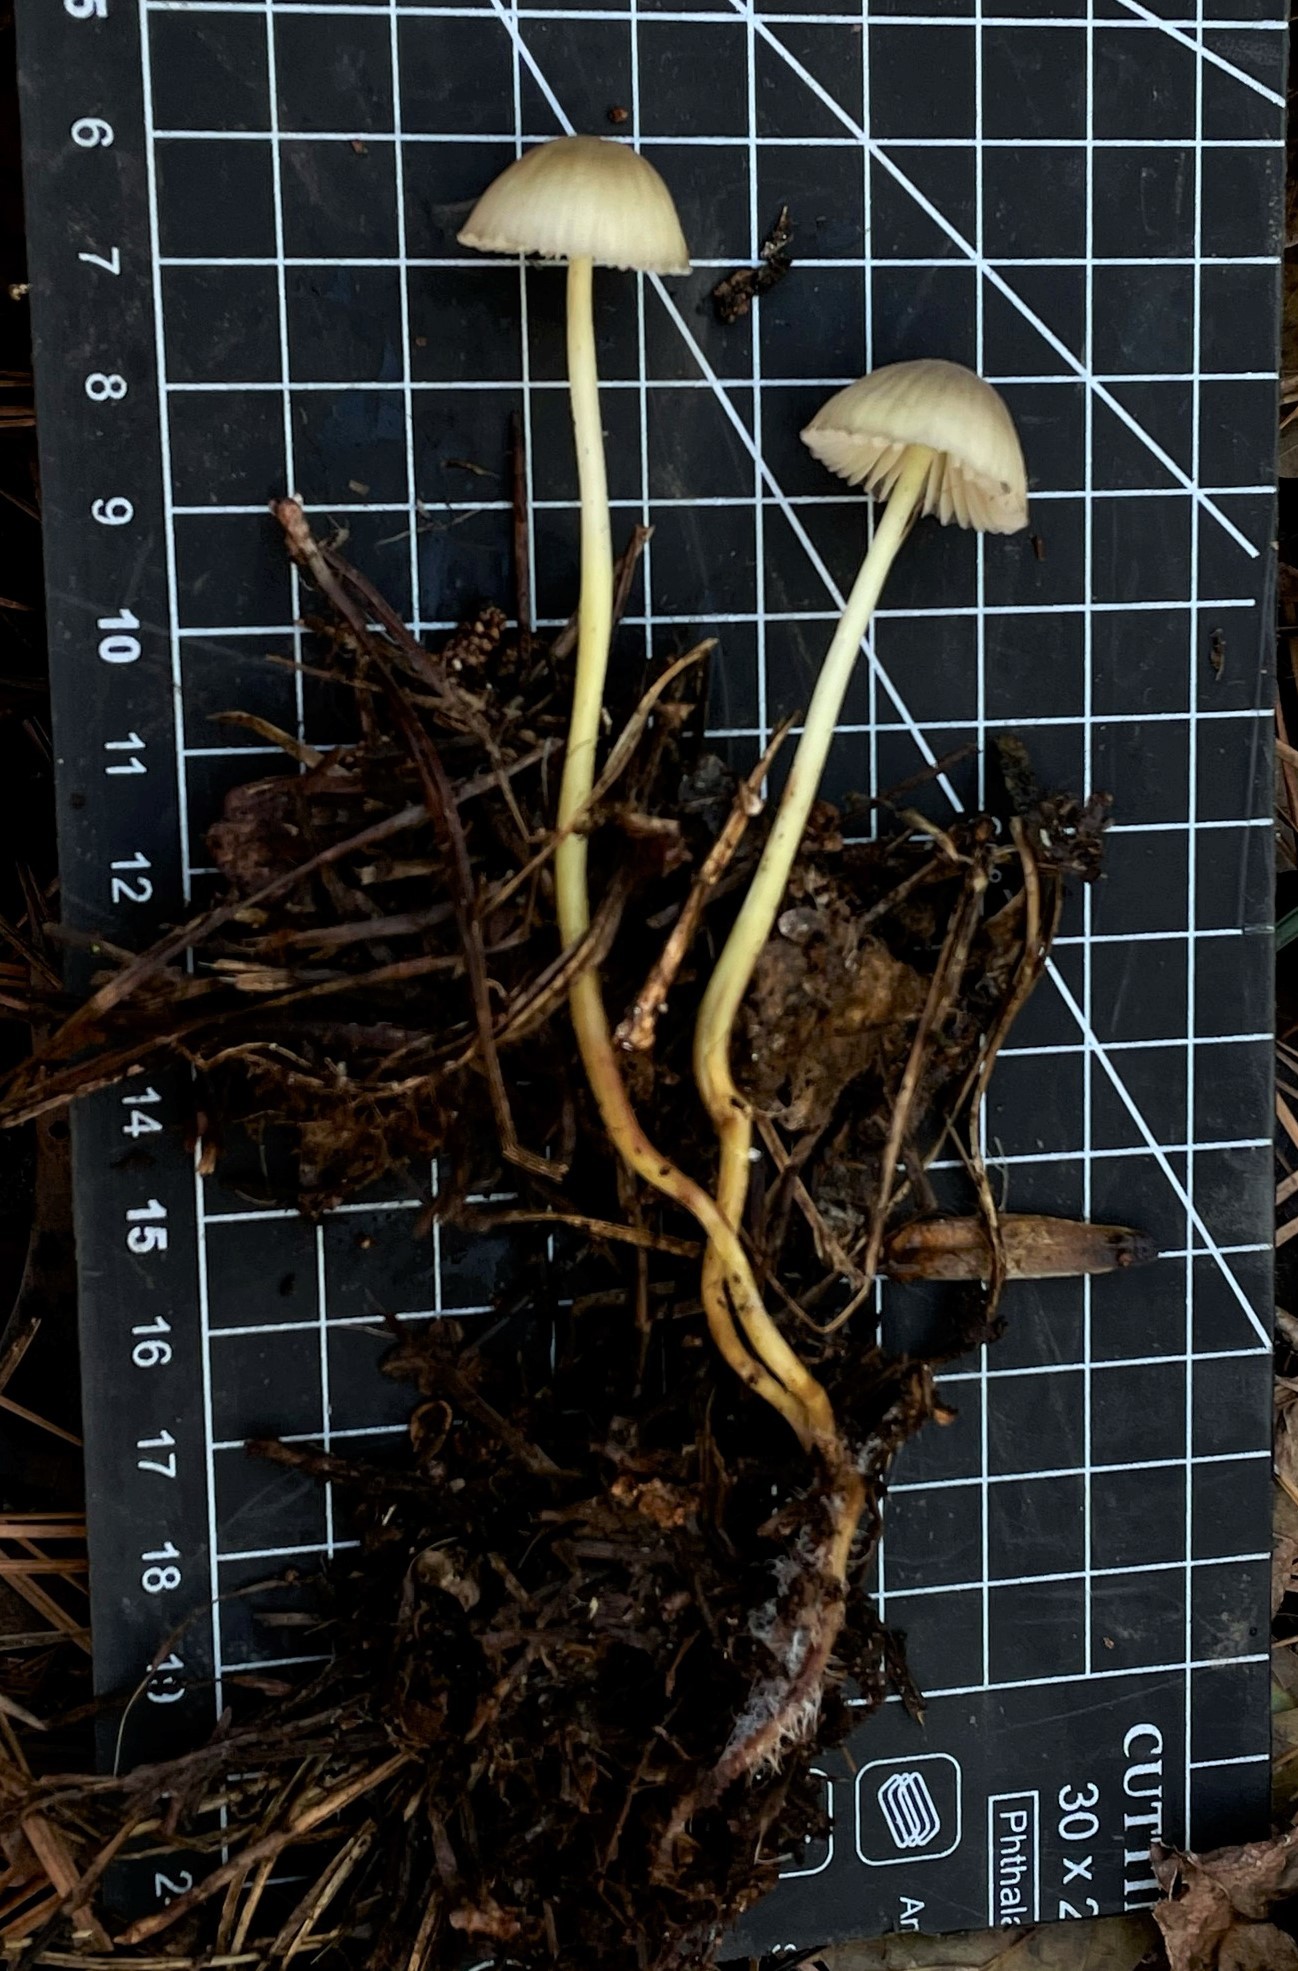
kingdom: Fungi
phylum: Basidiomycota
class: Agaricomycetes
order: Agaricales
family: Mycenaceae
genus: Mycena
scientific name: Mycena epipterygia
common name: Yellowleg bonnet
